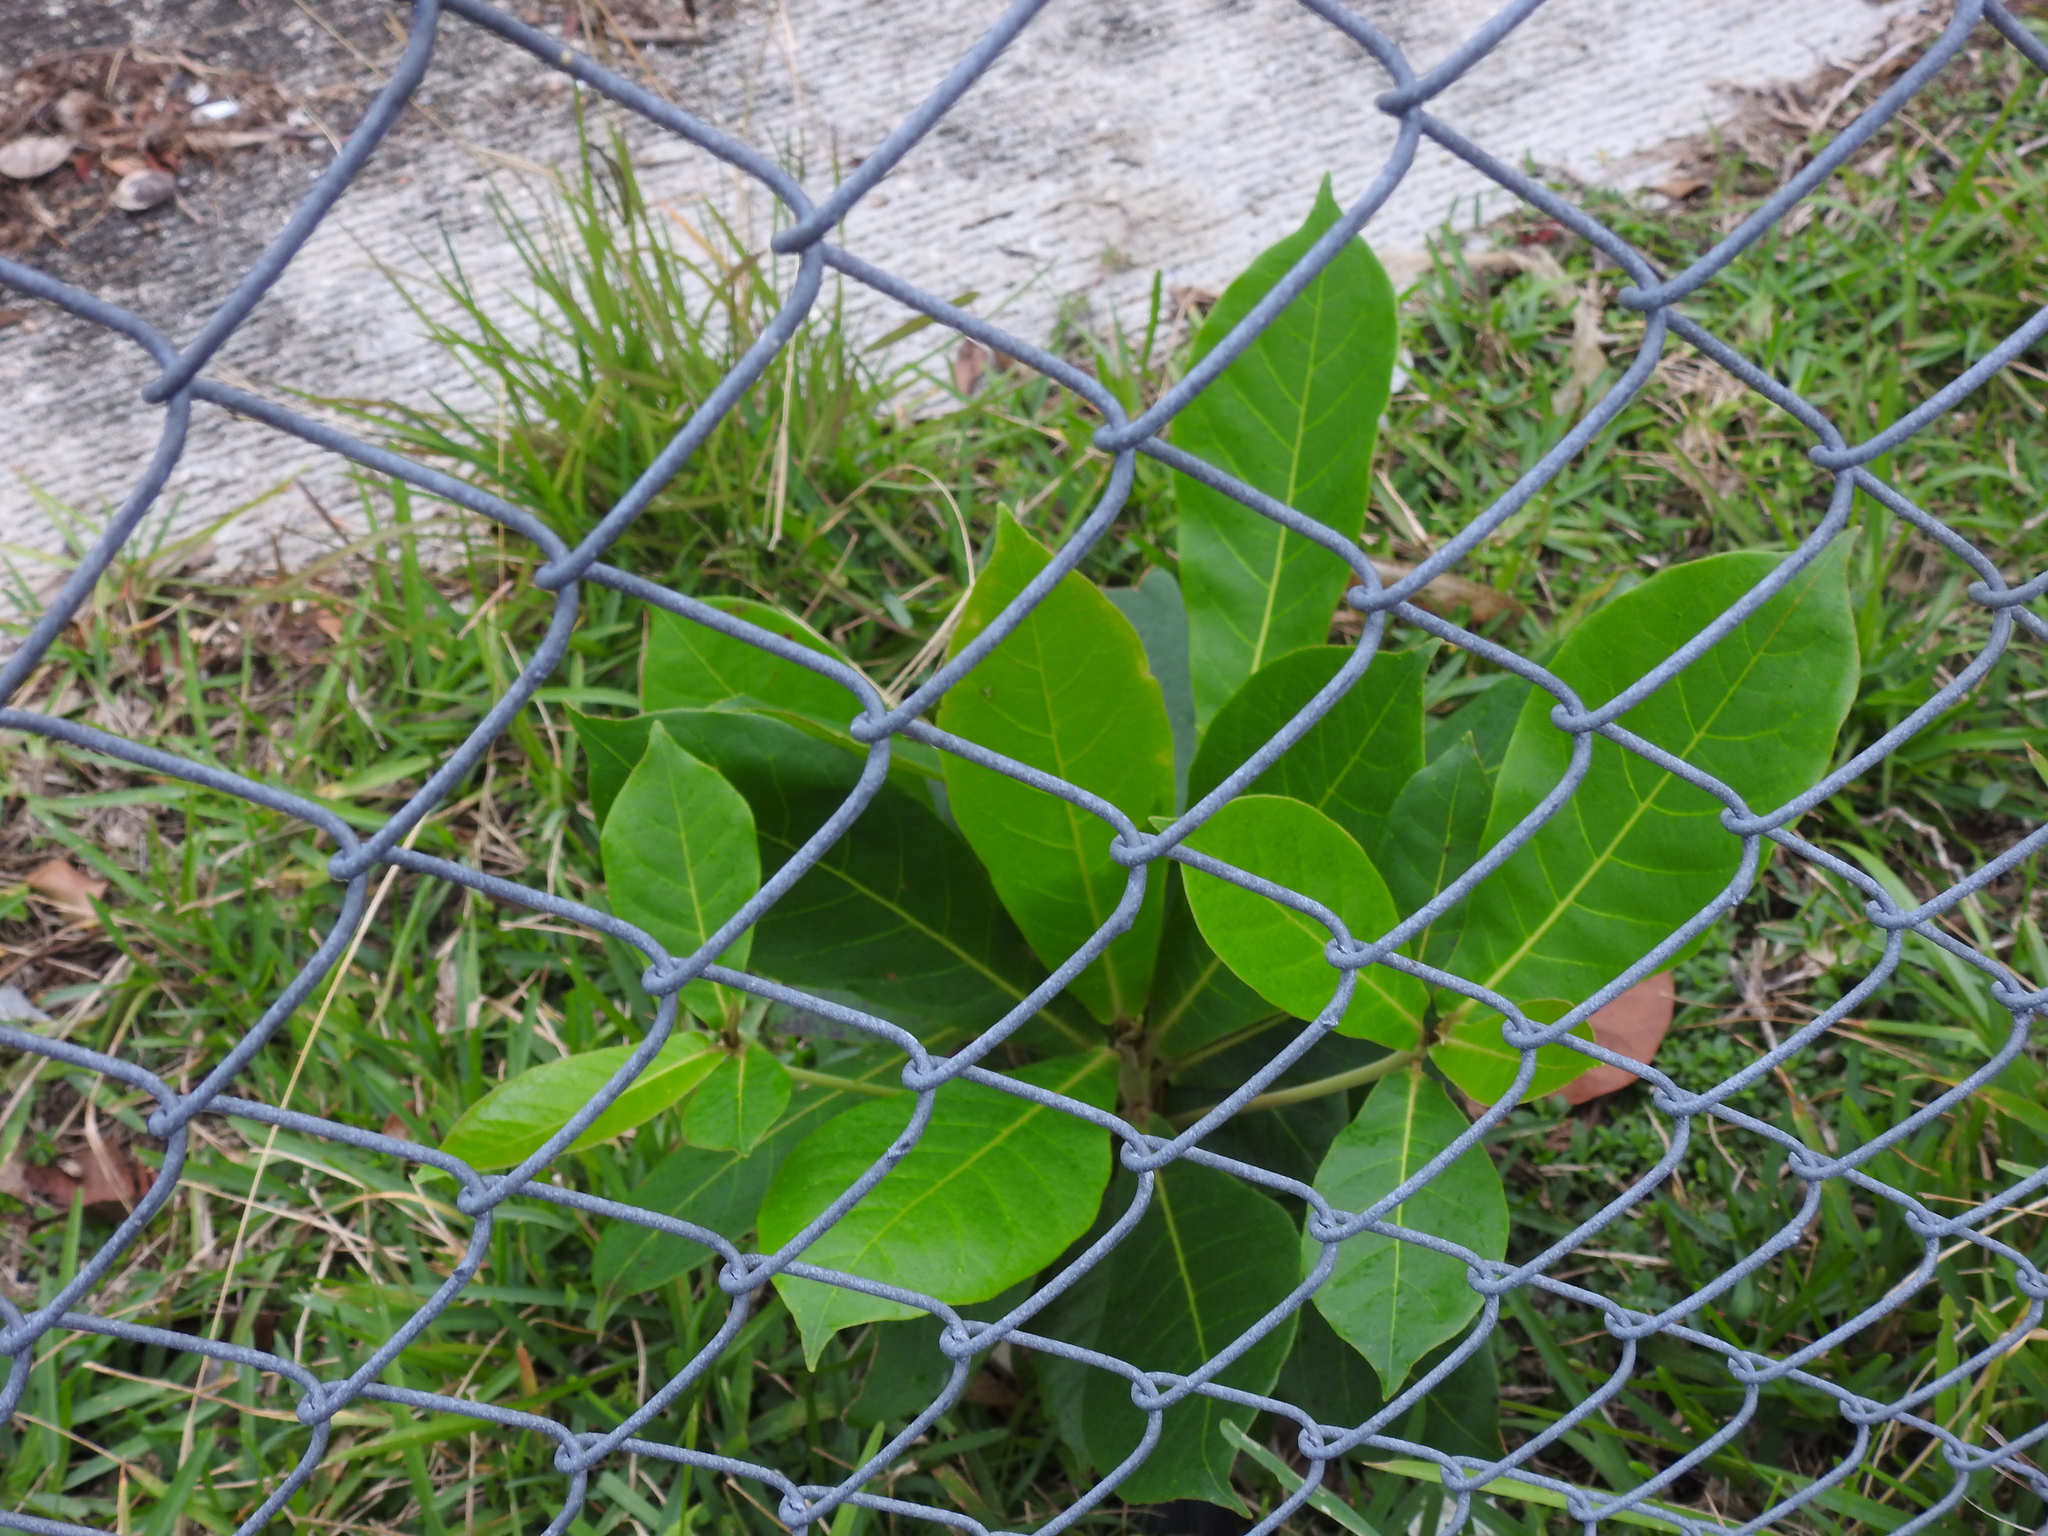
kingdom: Plantae
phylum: Tracheophyta
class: Magnoliopsida
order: Myrtales
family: Combretaceae
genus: Terminalia
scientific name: Terminalia catappa
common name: Tropical almond
